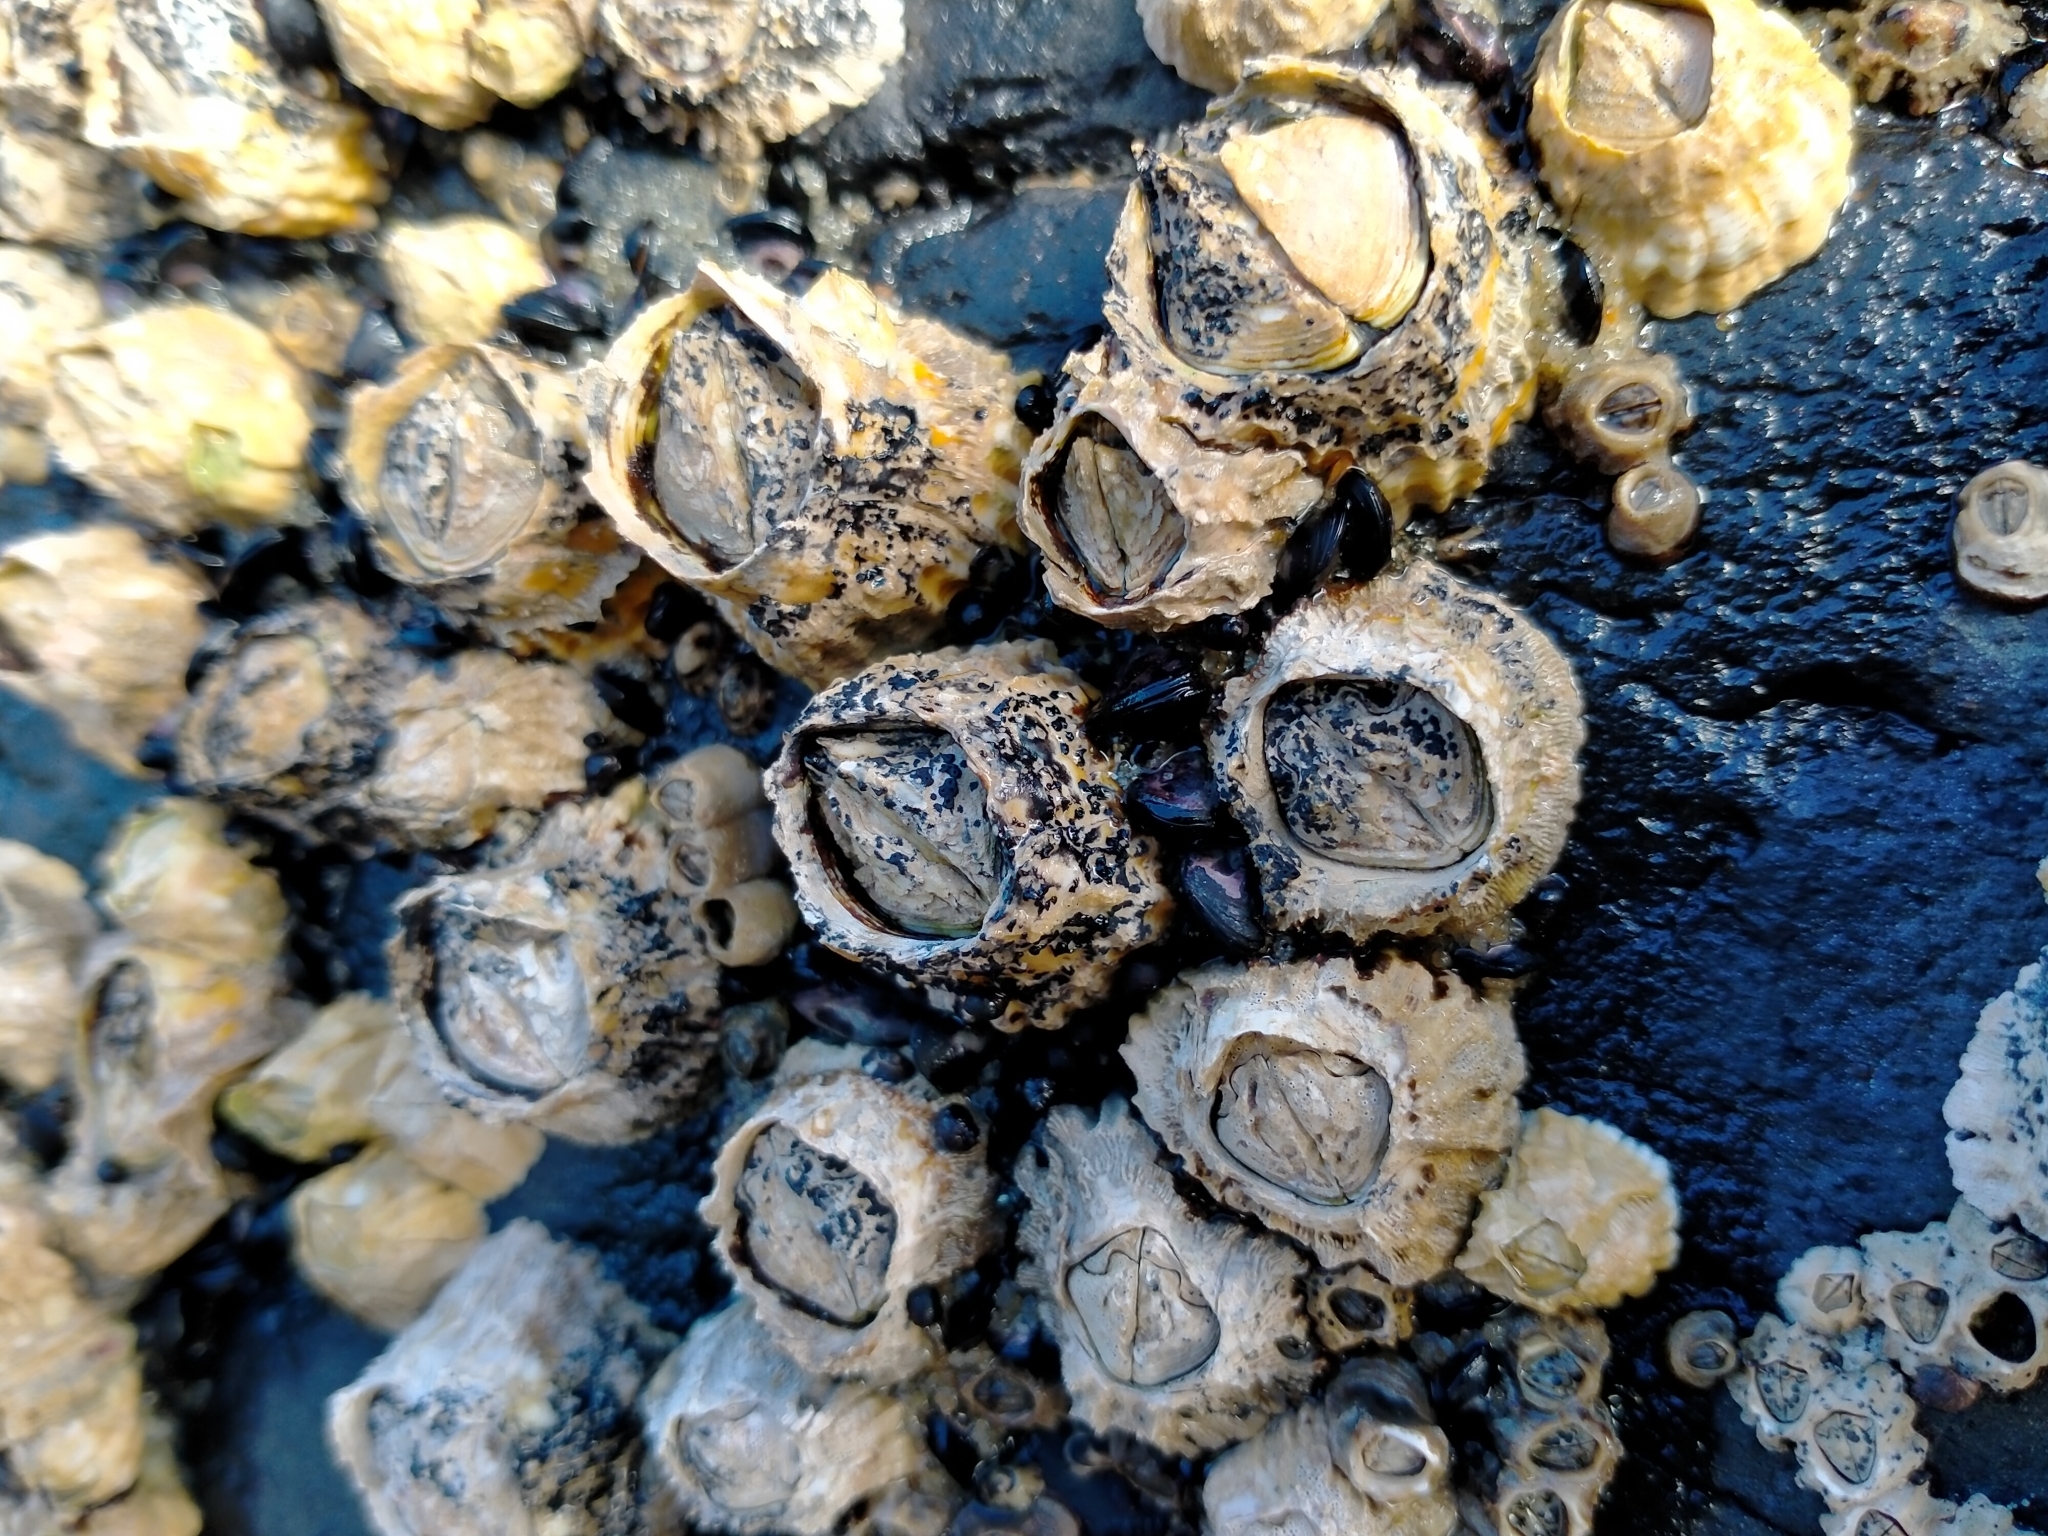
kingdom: Animalia
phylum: Arthropoda
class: Maxillopoda
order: Sessilia
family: Tetraclitidae
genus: Epopella
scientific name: Epopella plicata
